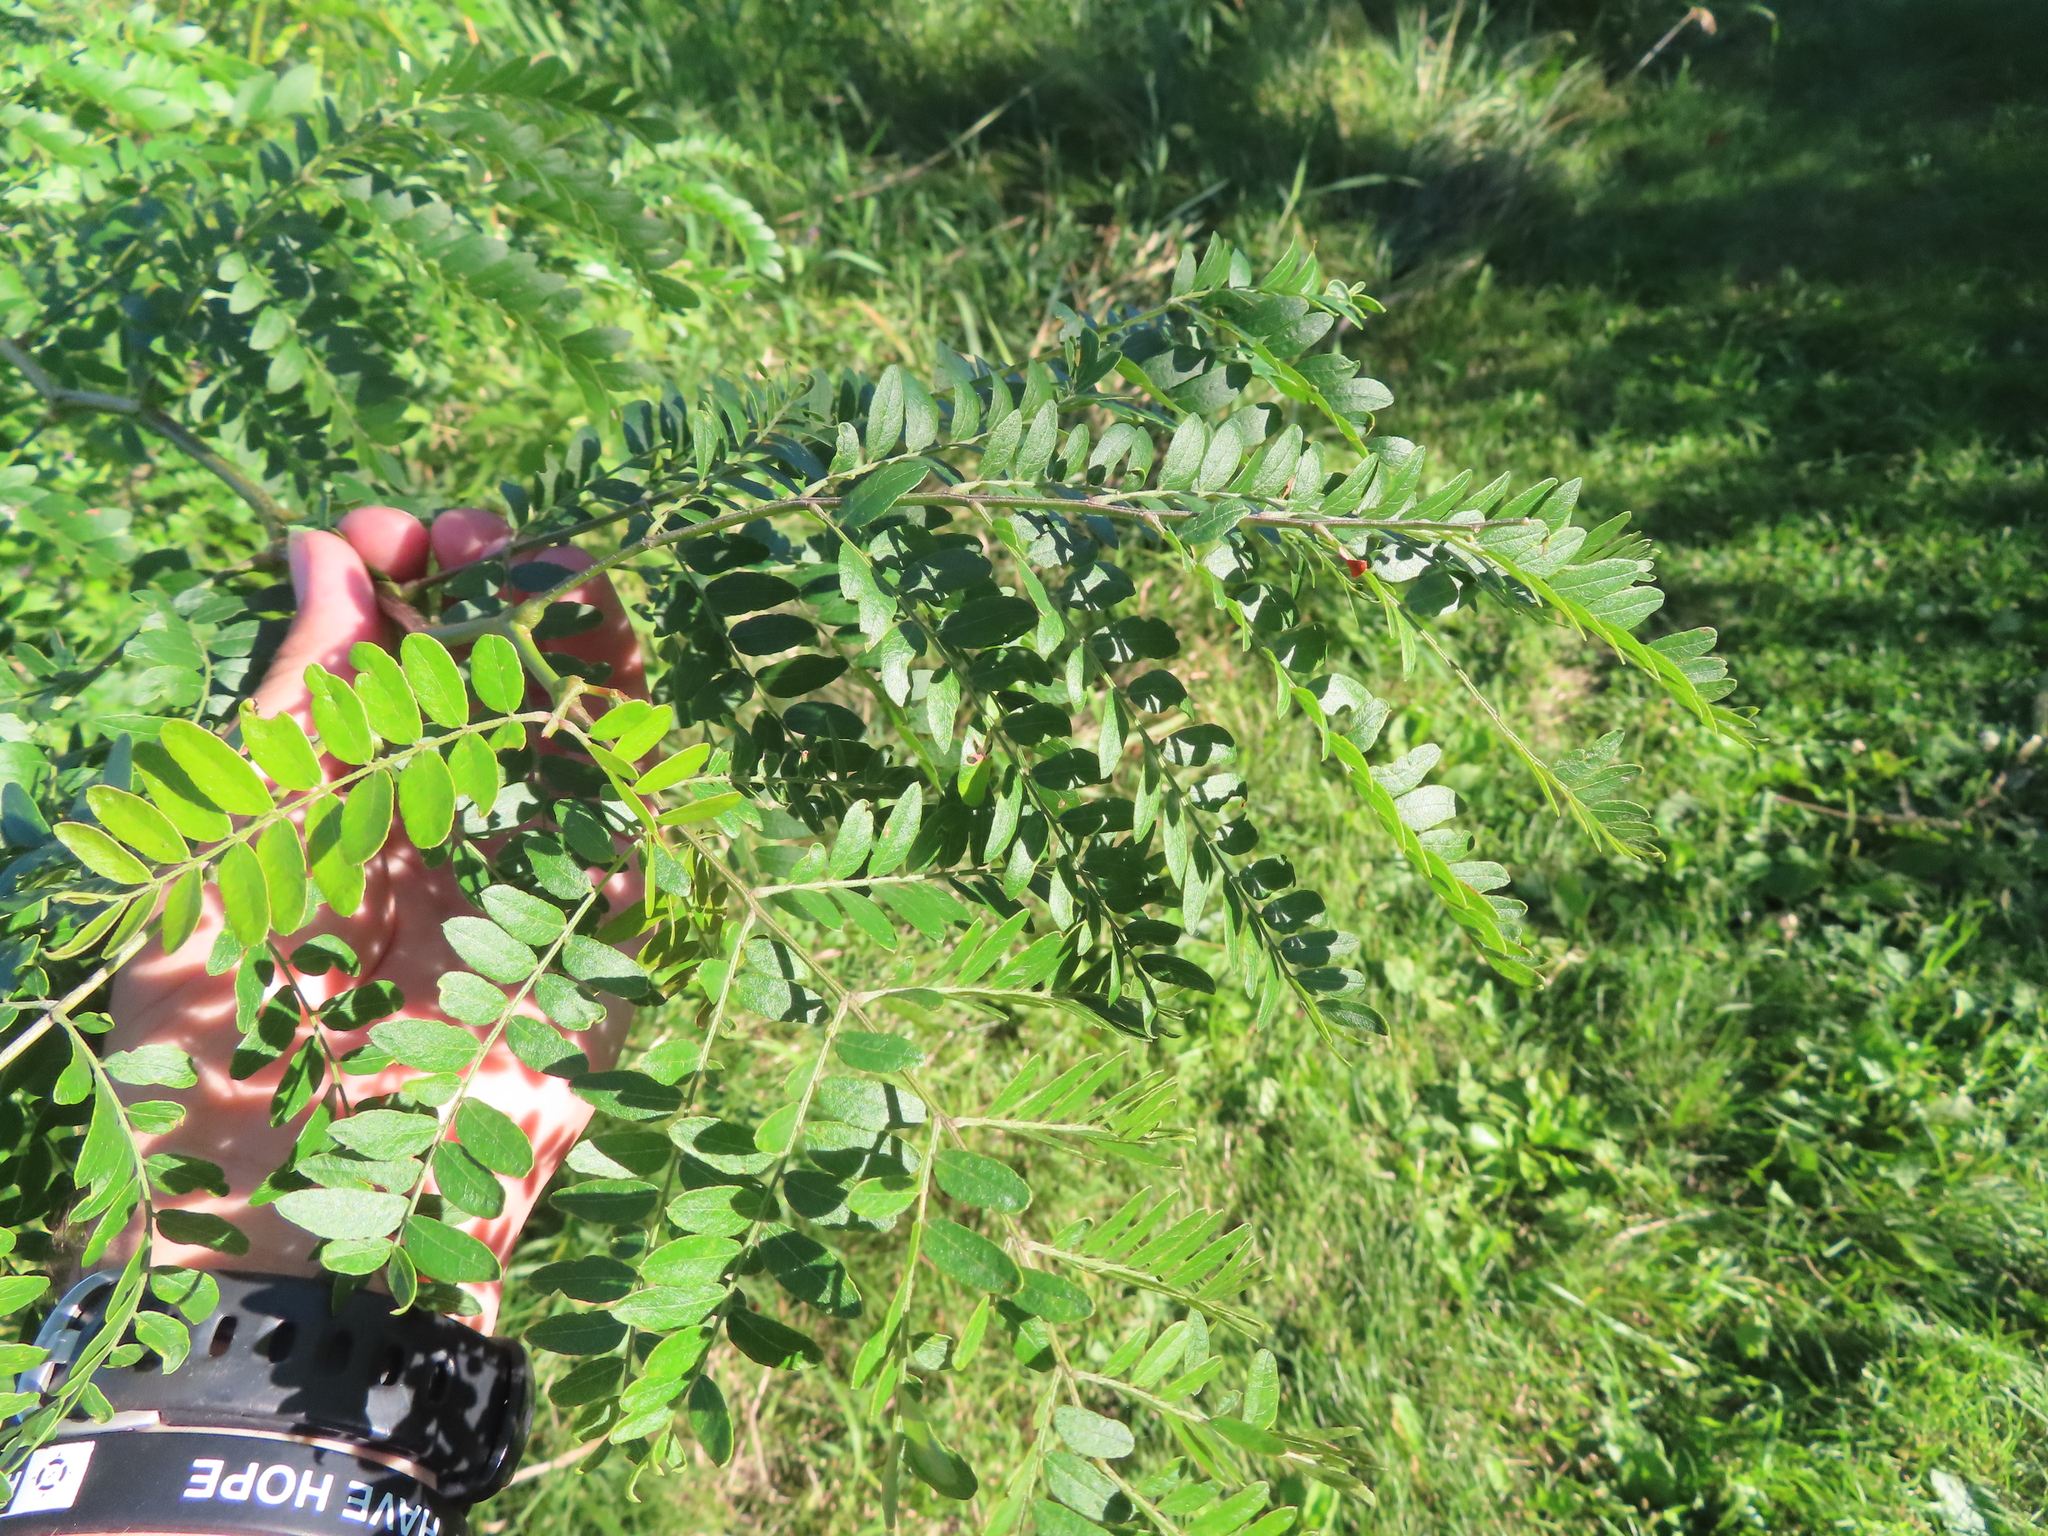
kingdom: Plantae
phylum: Tracheophyta
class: Magnoliopsida
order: Fabales
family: Fabaceae
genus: Gleditsia
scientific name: Gleditsia triacanthos
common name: Common honeylocust
